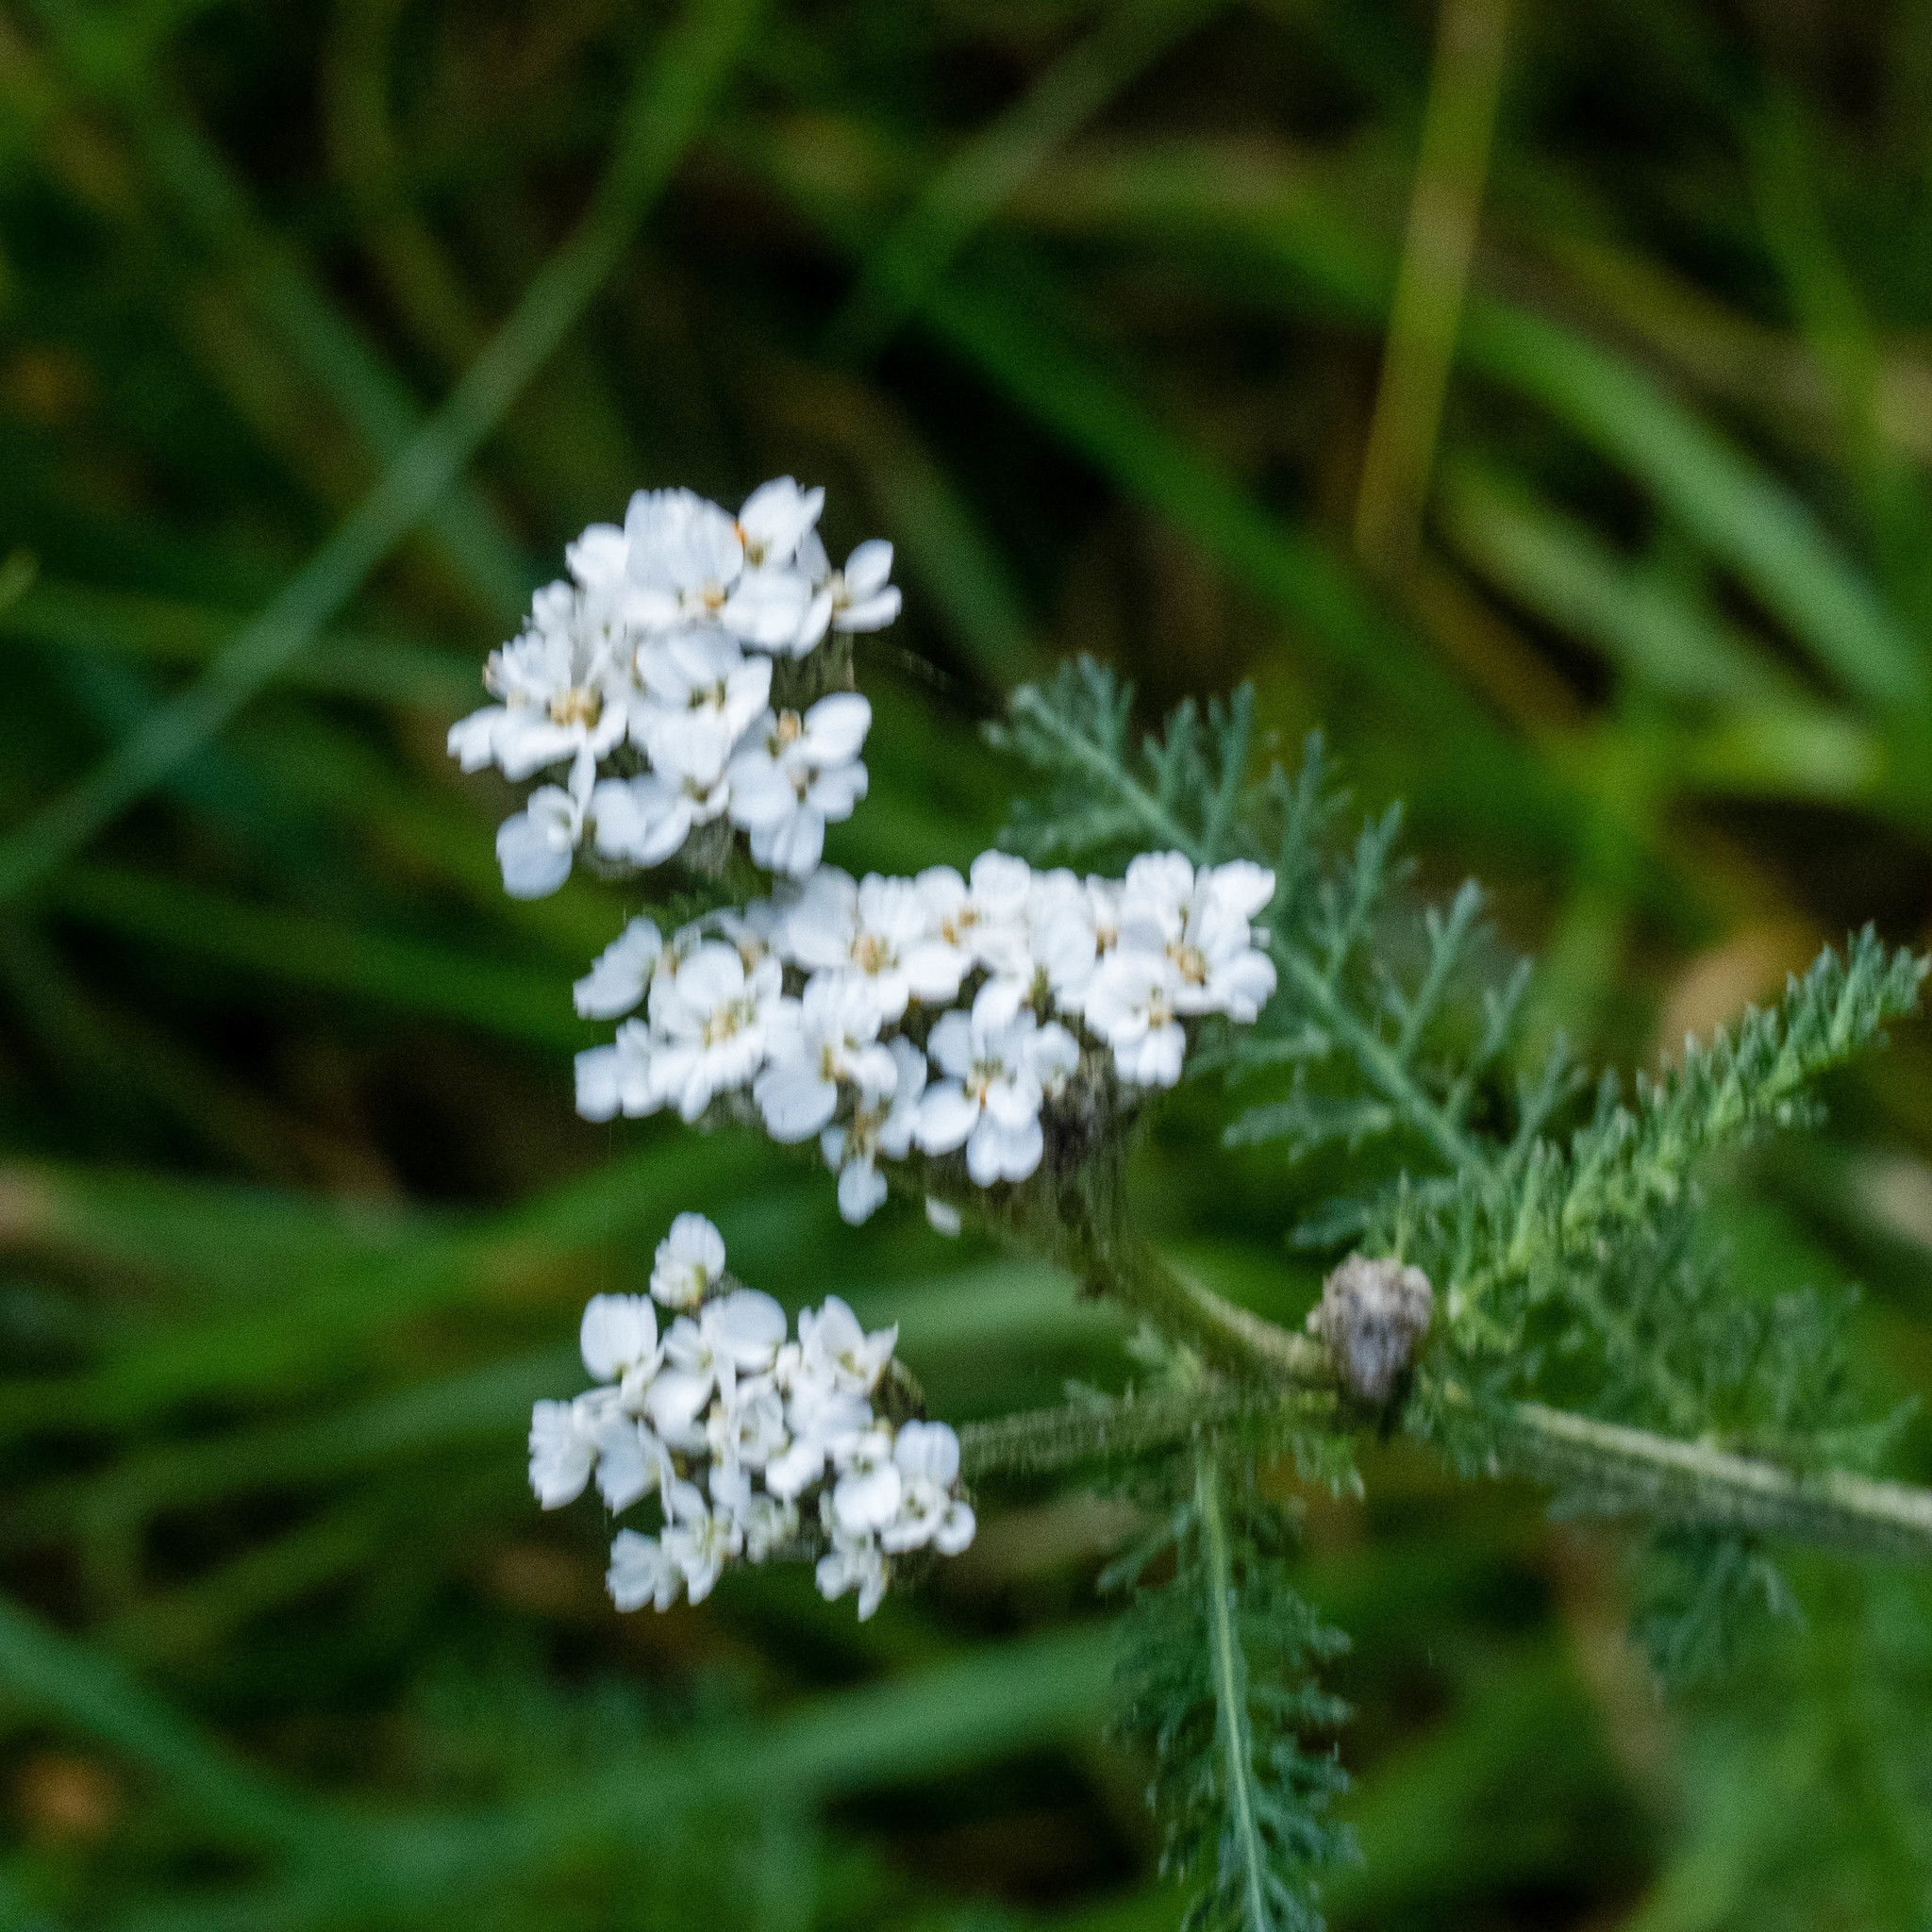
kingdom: Plantae
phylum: Tracheophyta
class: Magnoliopsida
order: Asterales
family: Asteraceae
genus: Achillea
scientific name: Achillea millefolium
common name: Yarrow
